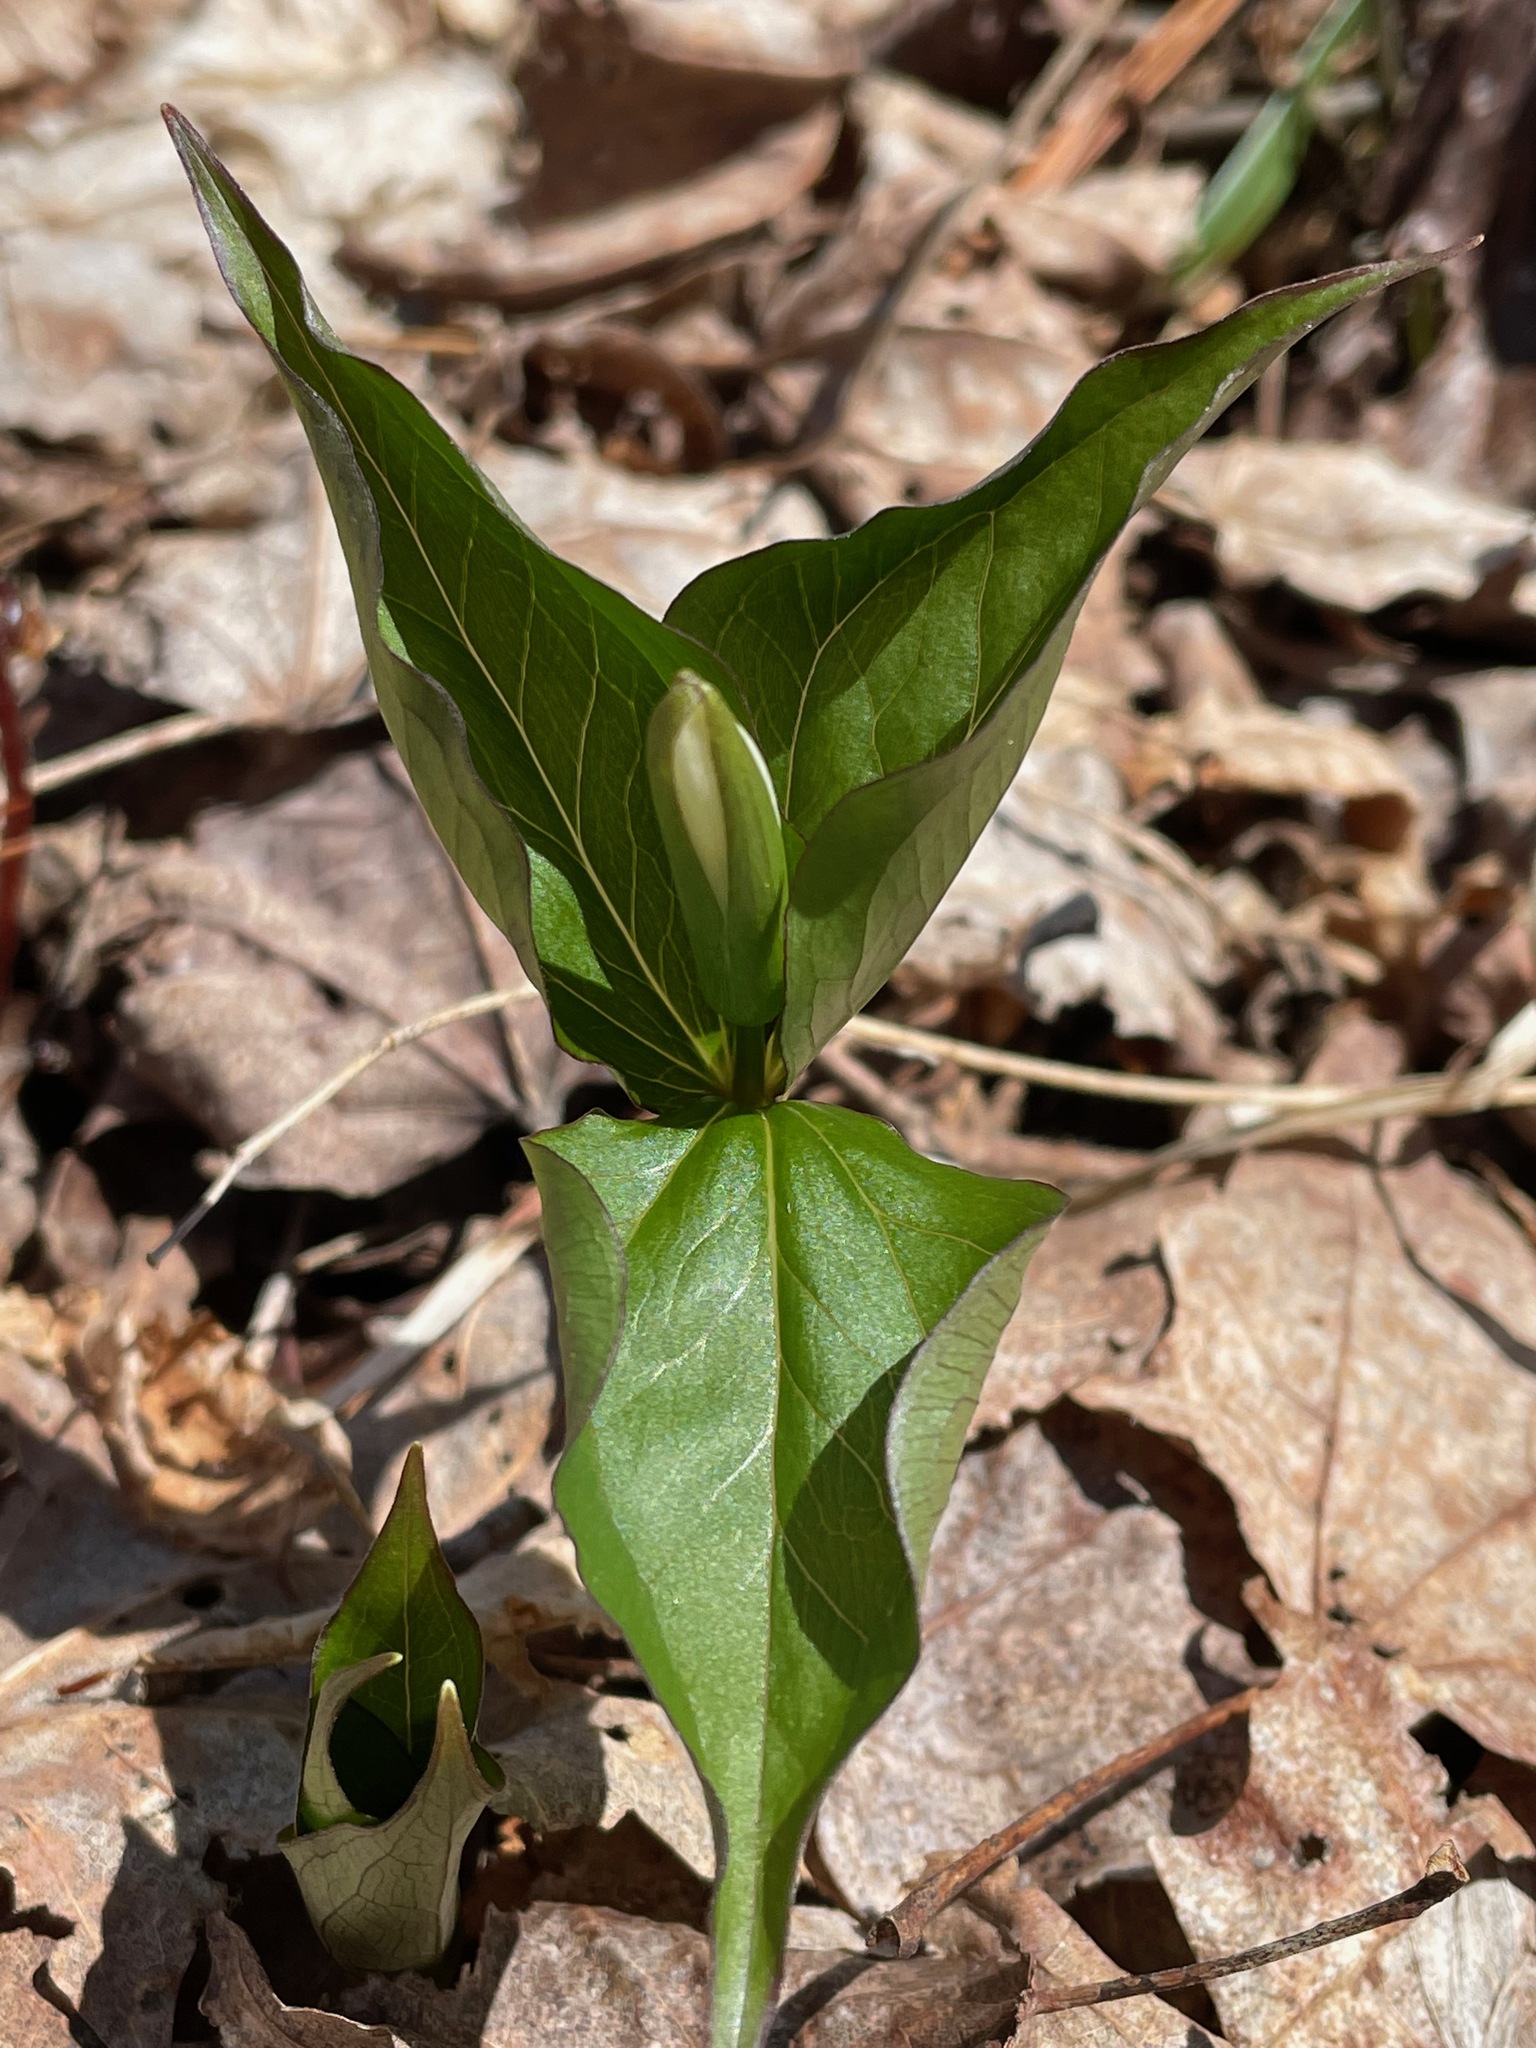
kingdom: Plantae
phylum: Tracheophyta
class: Liliopsida
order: Liliales
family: Melanthiaceae
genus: Trillium
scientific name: Trillium grandiflorum
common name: Great white trillium
